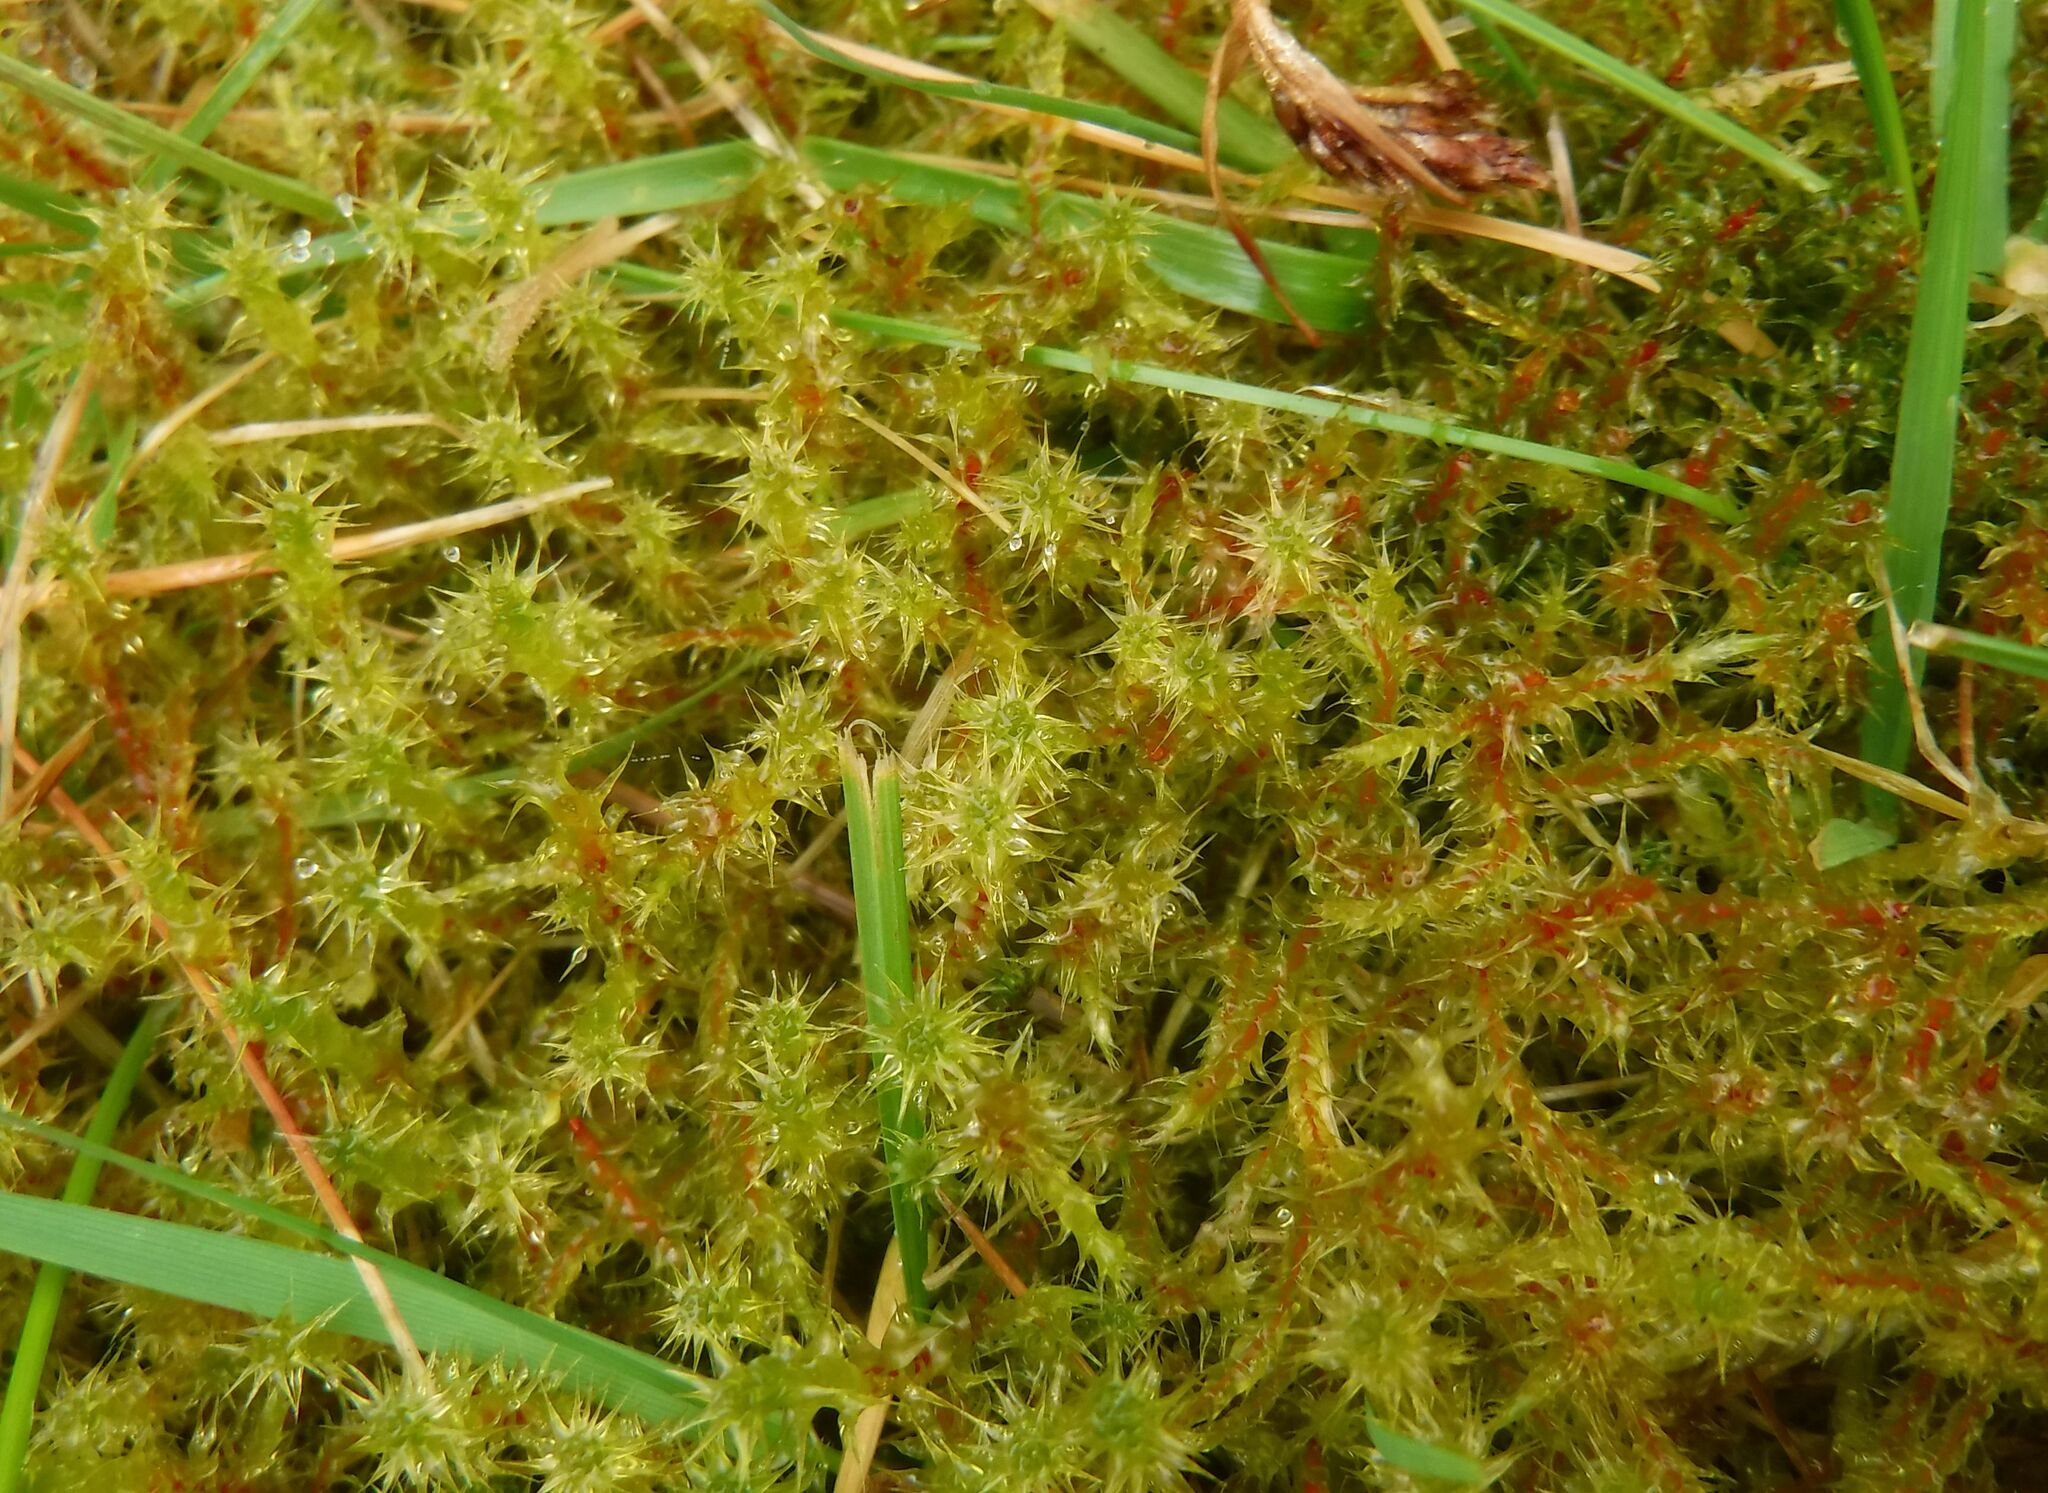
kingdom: Plantae
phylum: Bryophyta
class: Bryopsida
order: Hypnales
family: Hylocomiaceae
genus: Rhytidiadelphus
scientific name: Rhytidiadelphus squarrosus
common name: Springy turf-moss
